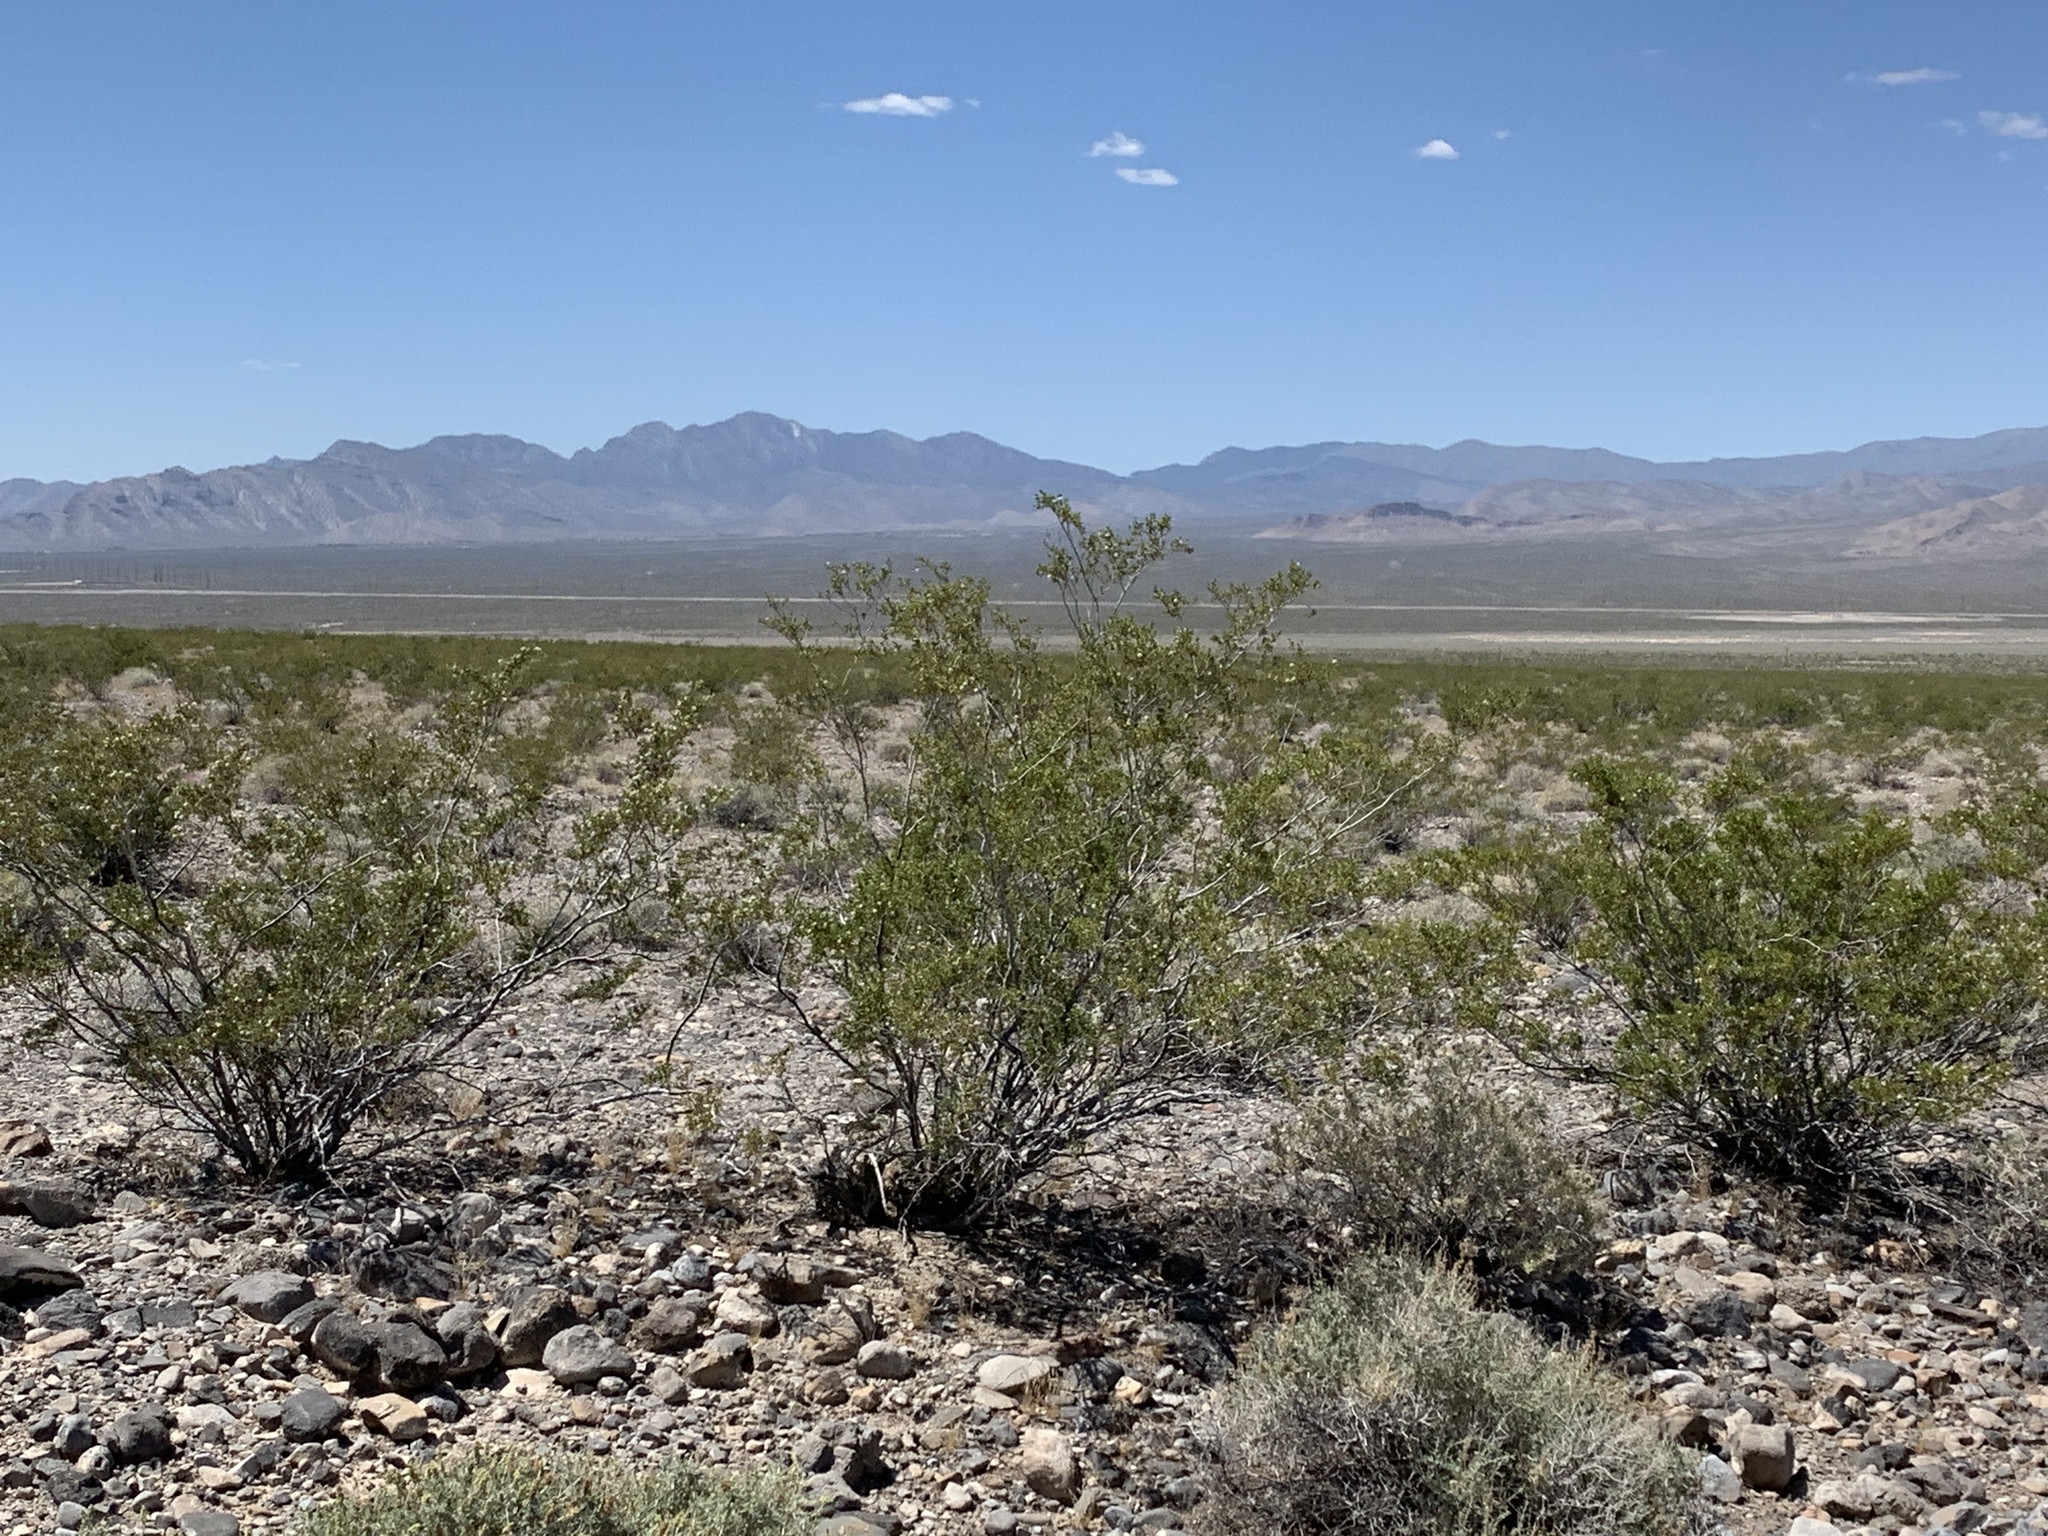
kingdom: Plantae
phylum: Tracheophyta
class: Magnoliopsida
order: Zygophyllales
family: Zygophyllaceae
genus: Larrea
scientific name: Larrea tridentata
